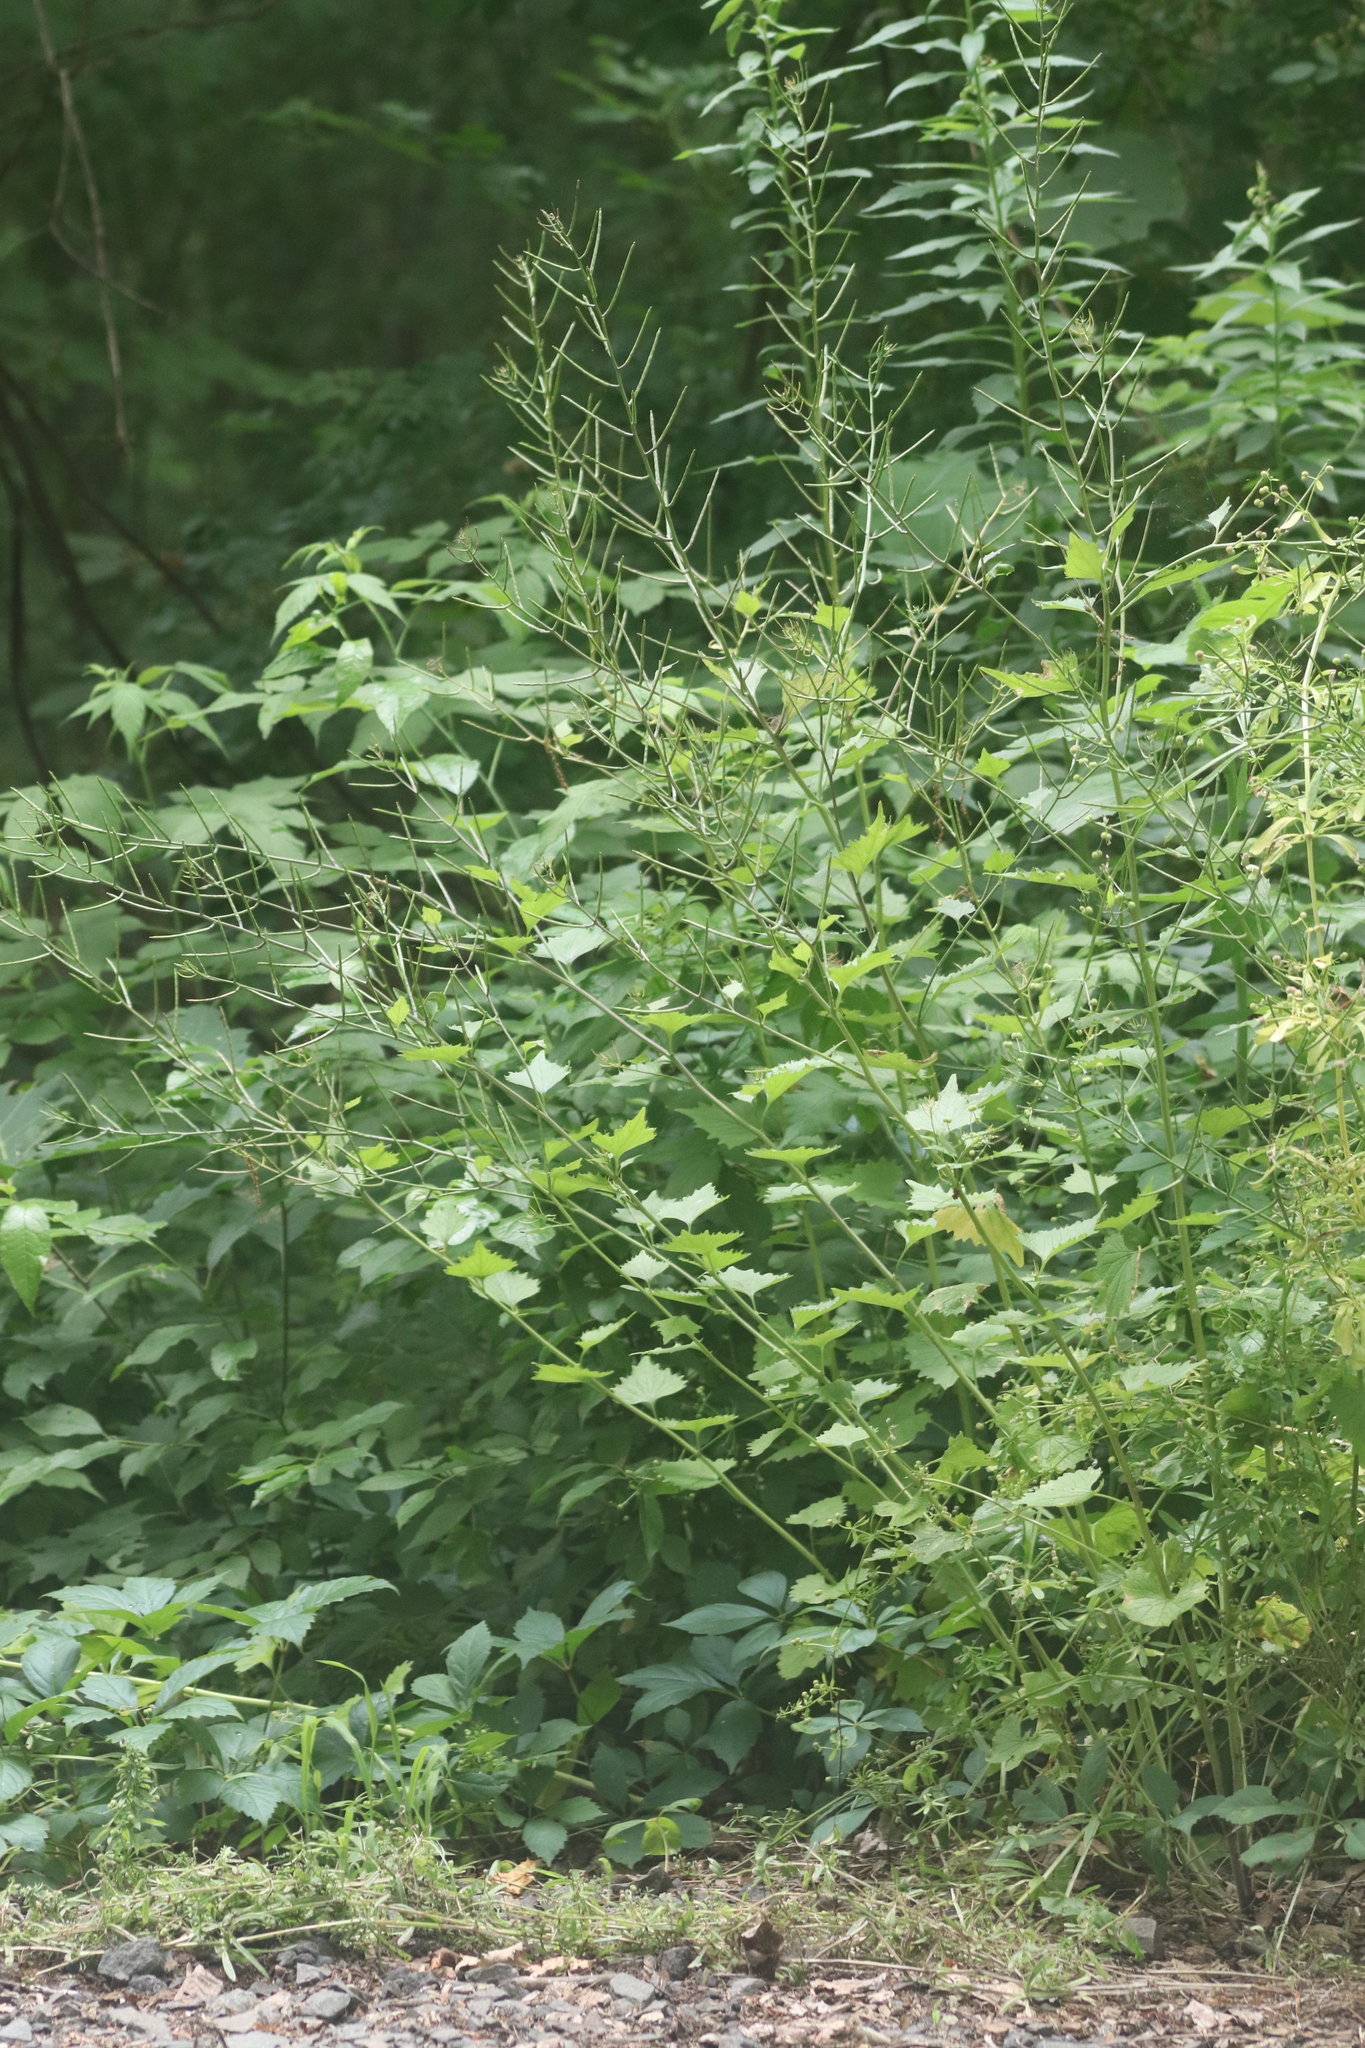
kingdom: Plantae
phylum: Tracheophyta
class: Magnoliopsida
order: Brassicales
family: Brassicaceae
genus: Alliaria
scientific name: Alliaria petiolata
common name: Garlic mustard
